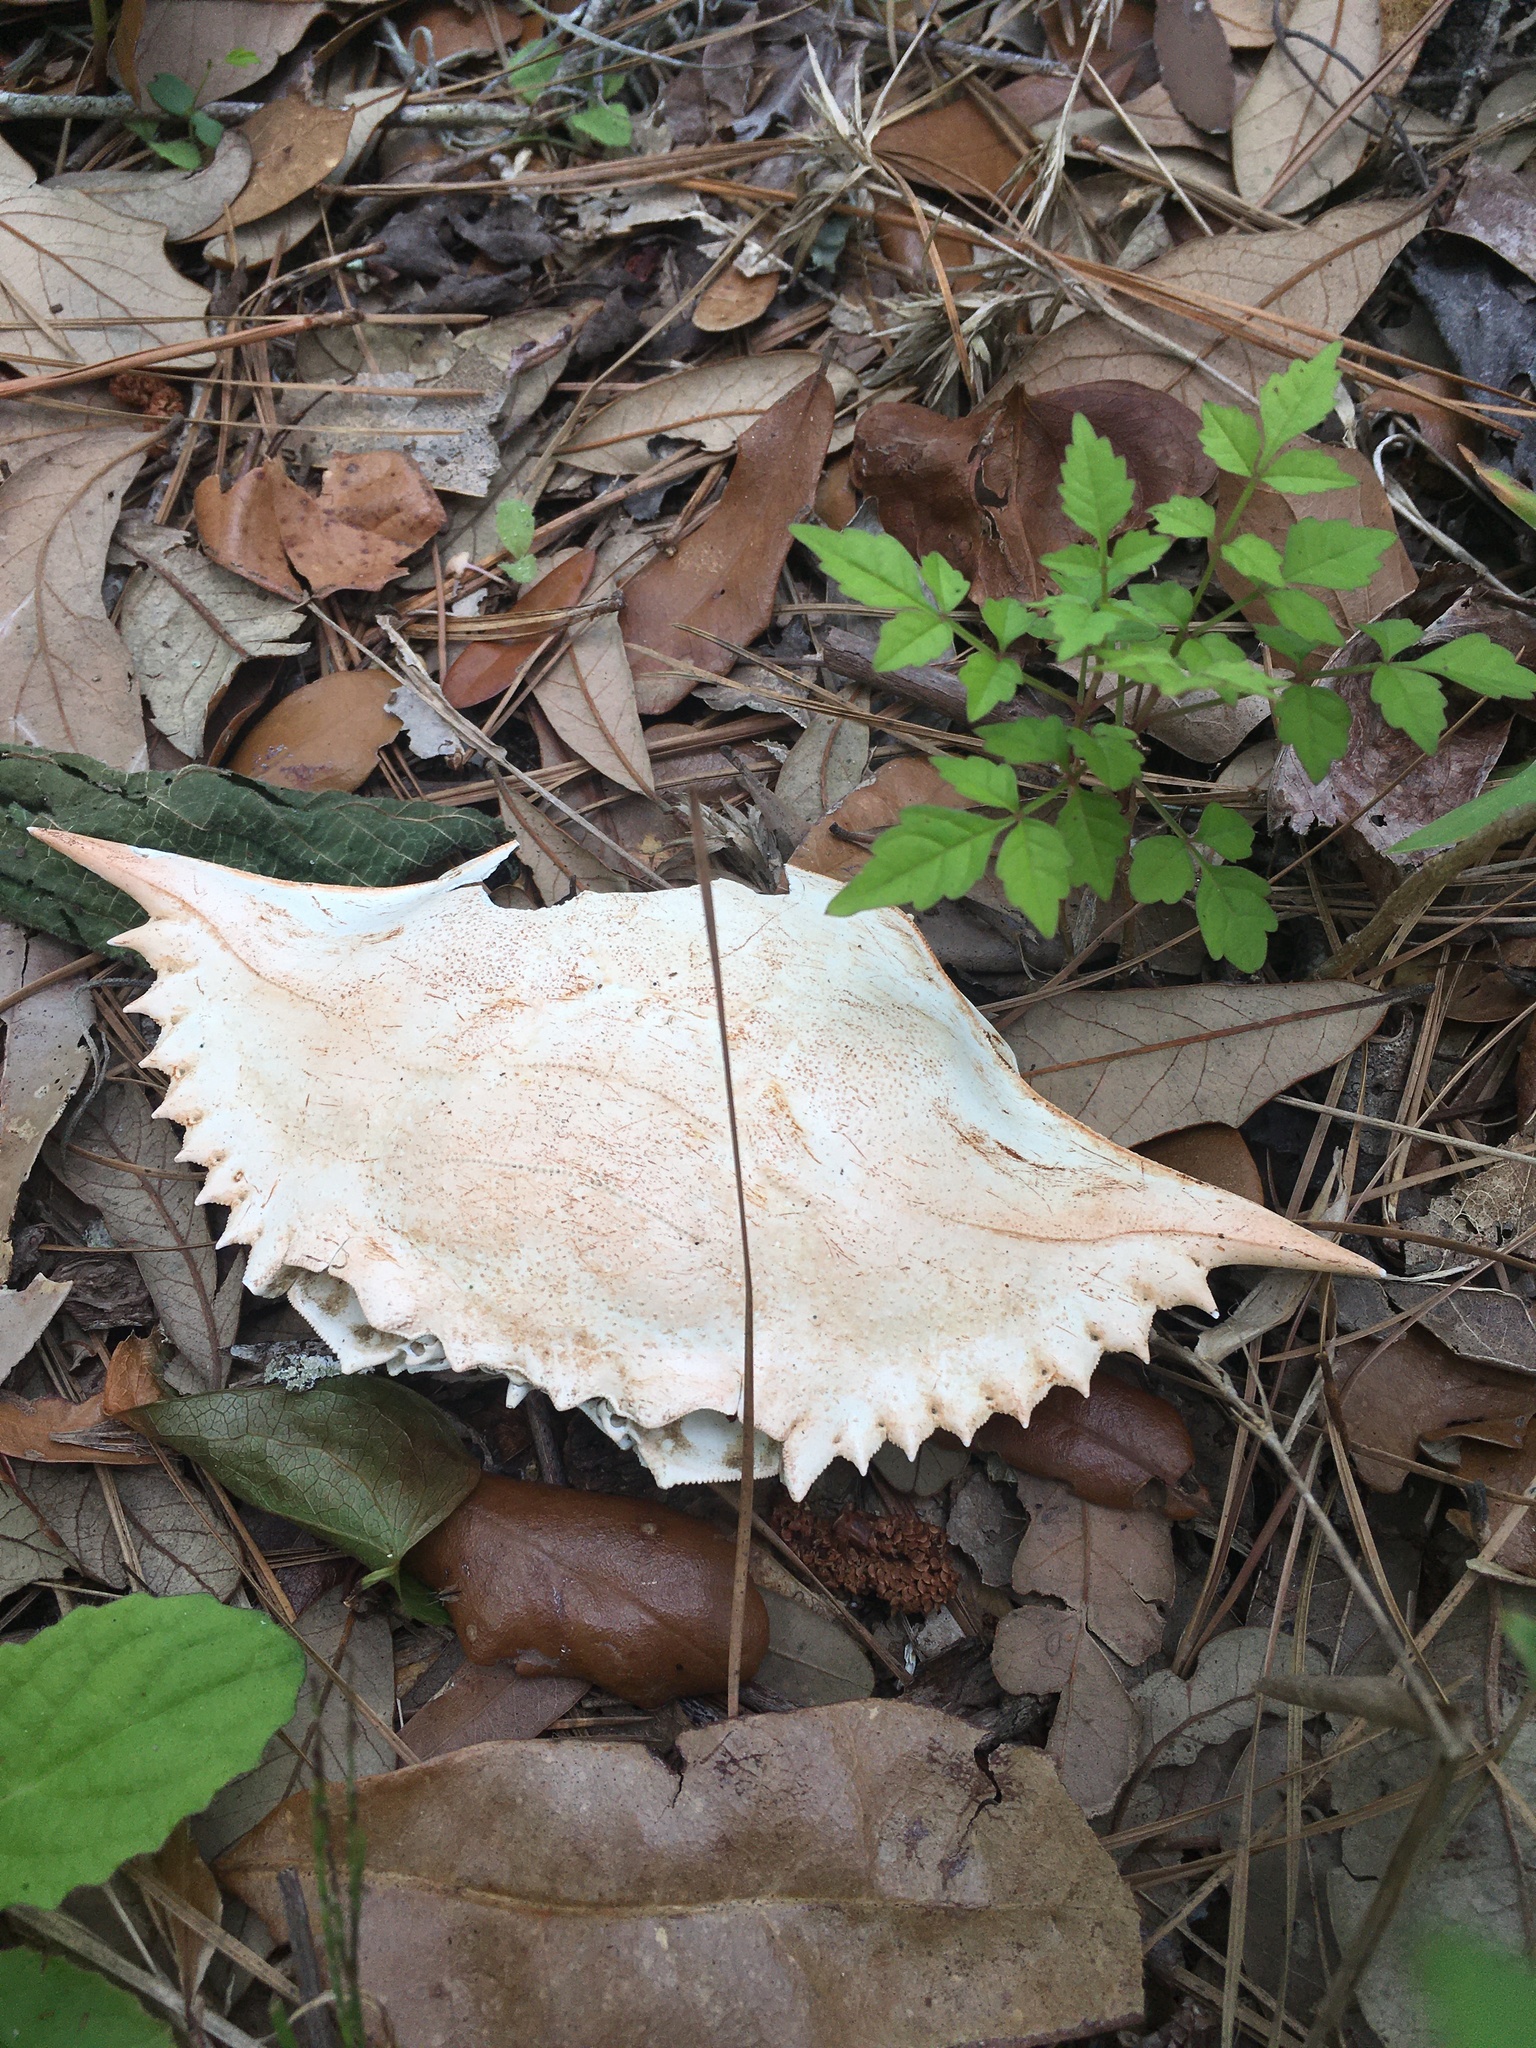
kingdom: Animalia
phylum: Arthropoda
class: Malacostraca
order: Decapoda
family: Portunidae
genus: Callinectes
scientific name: Callinectes sapidus
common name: Blue crab
